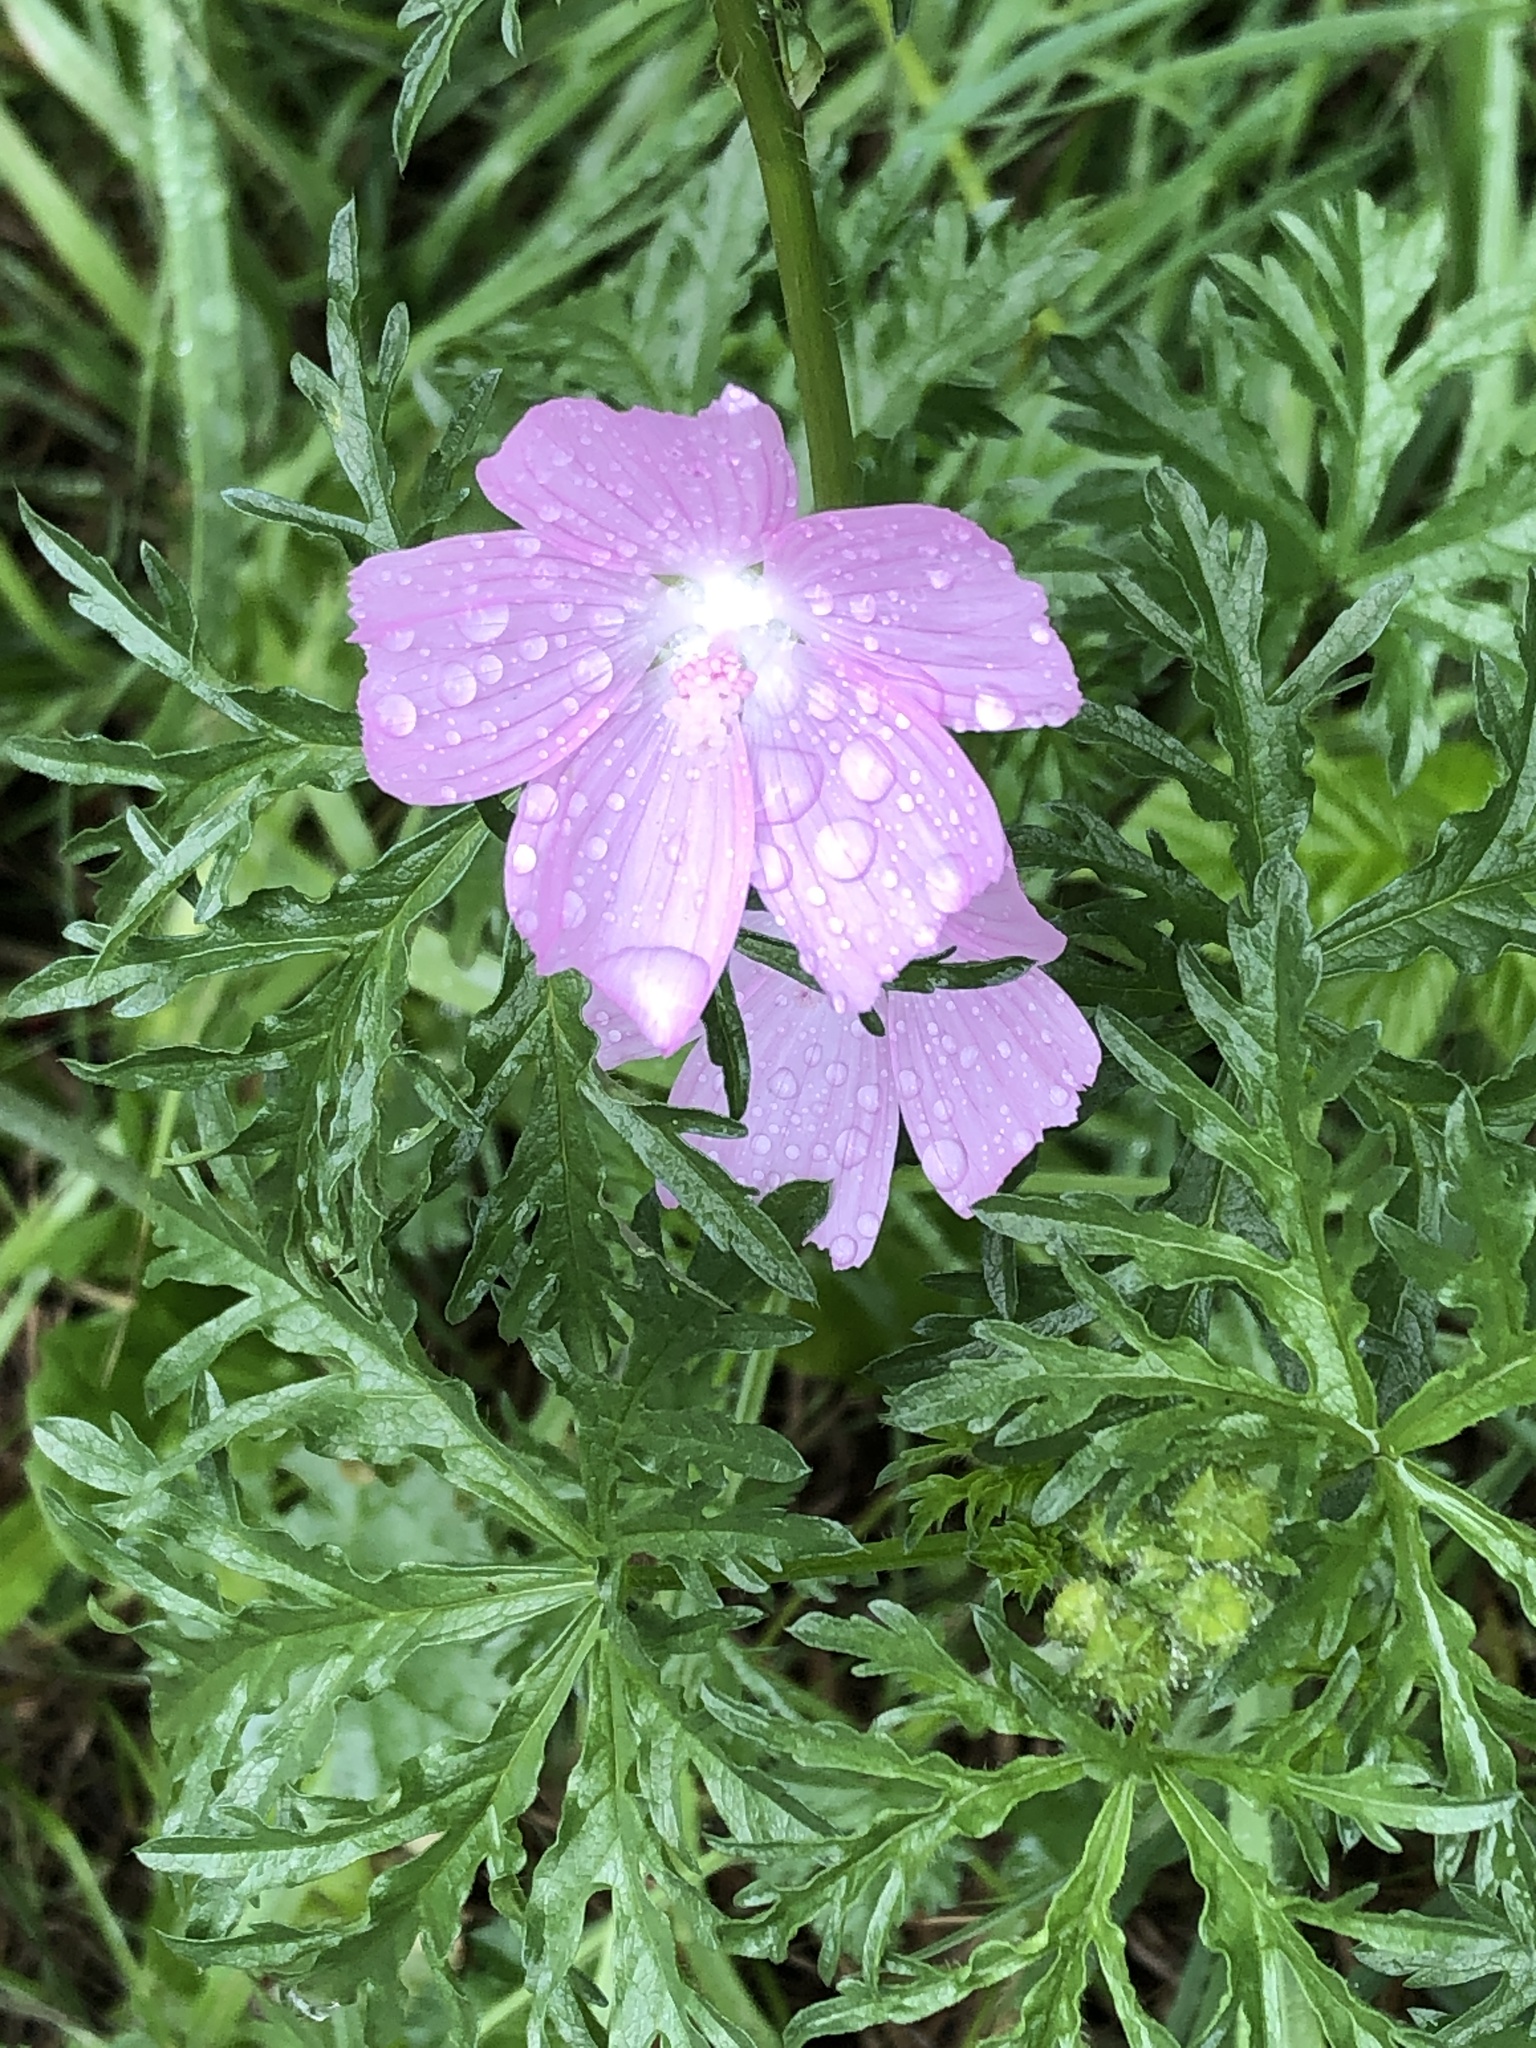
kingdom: Plantae
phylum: Tracheophyta
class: Magnoliopsida
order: Malvales
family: Malvaceae
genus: Malva
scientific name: Malva moschata
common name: Musk mallow
